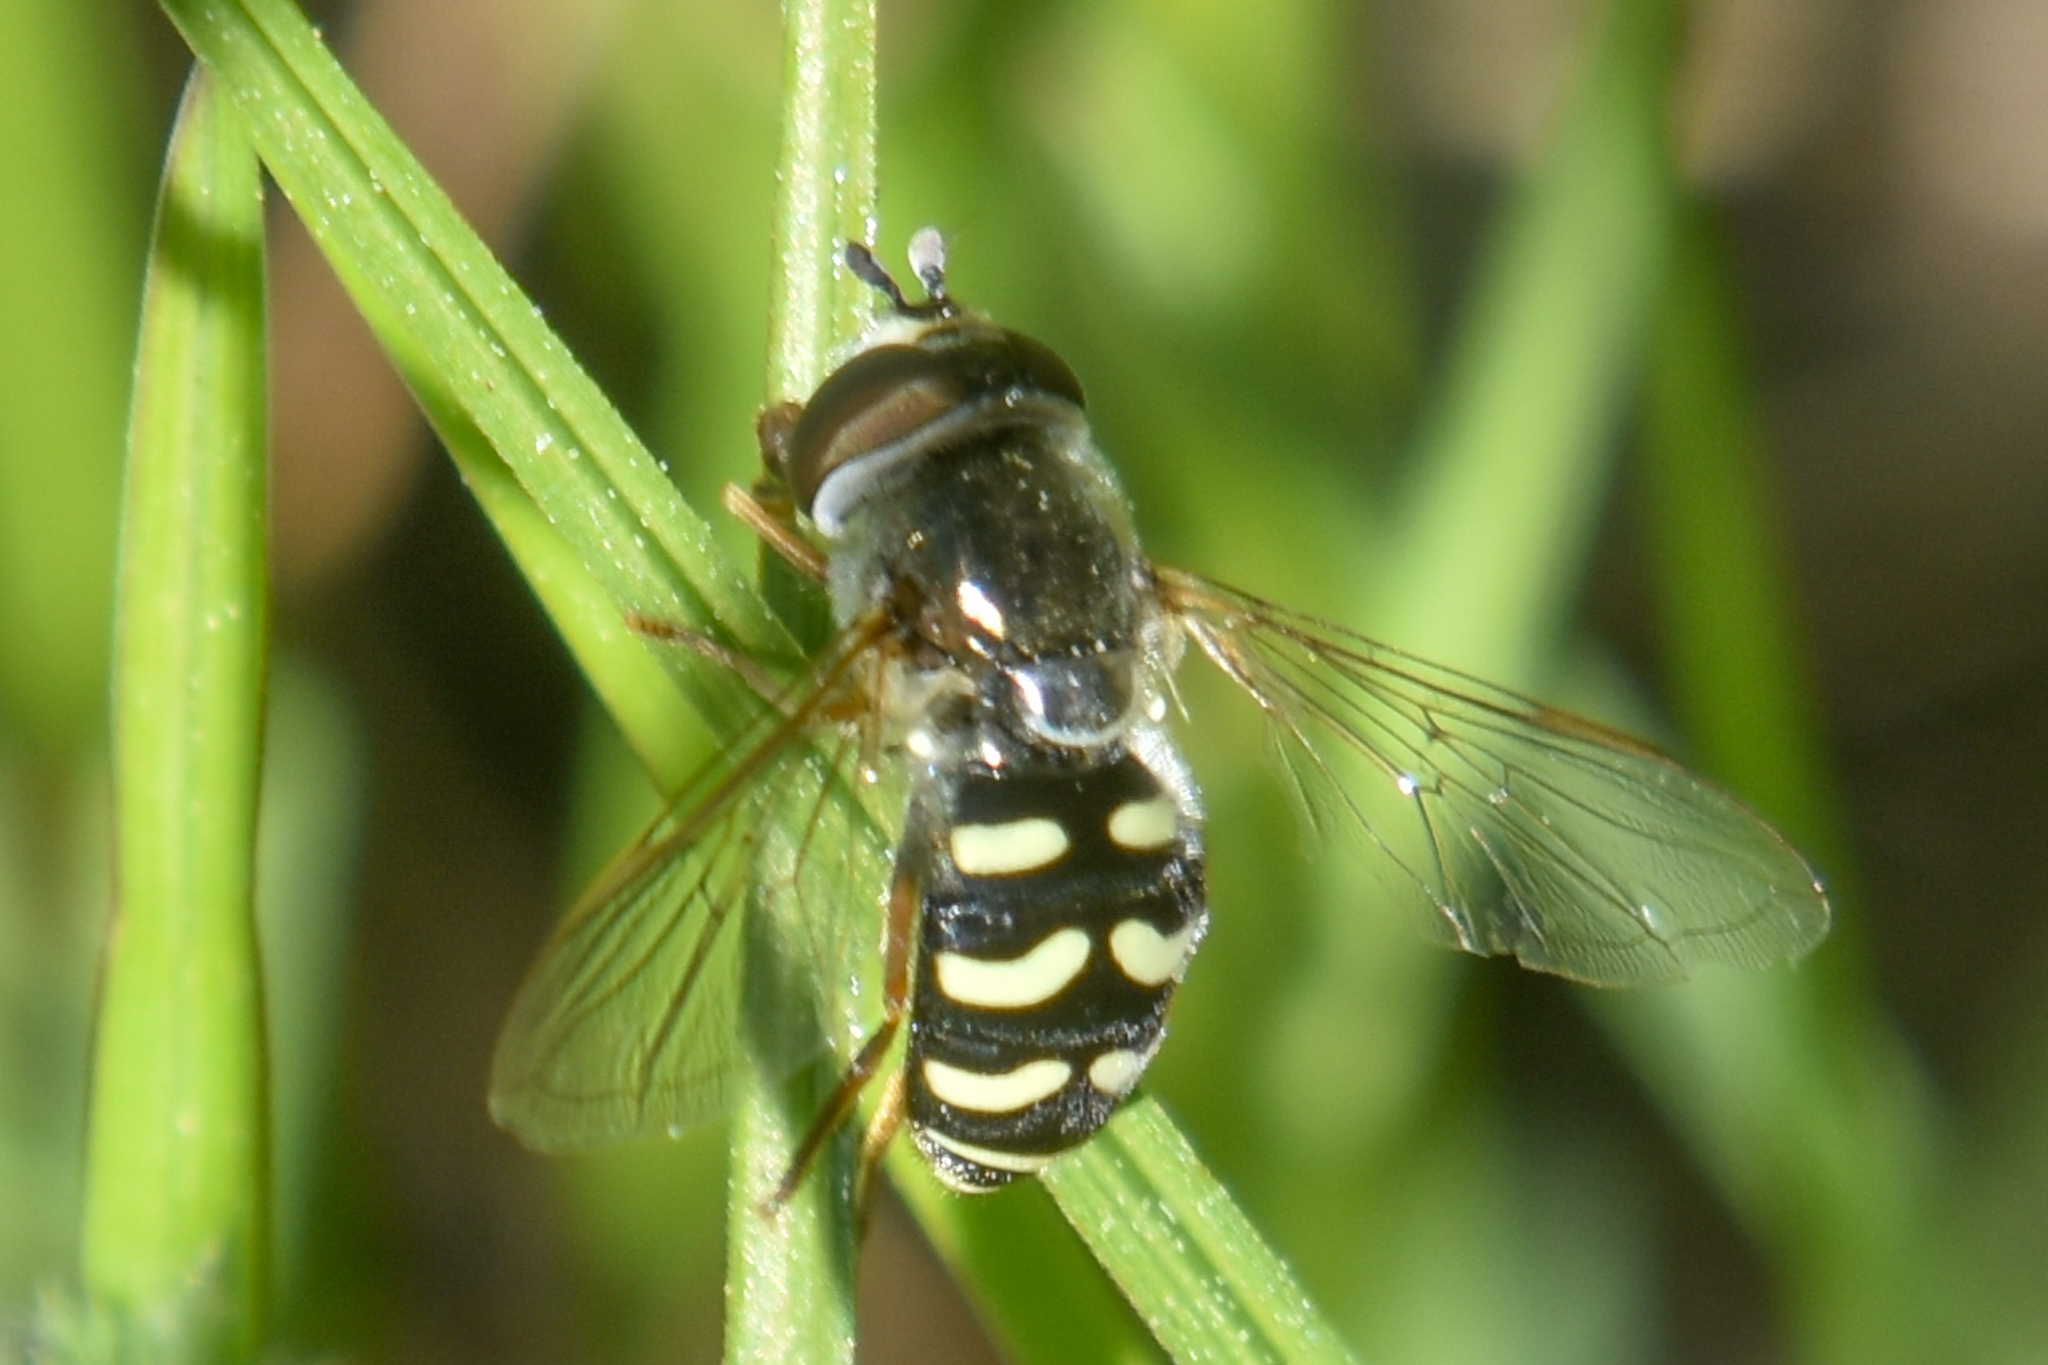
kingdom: Animalia
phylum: Arthropoda
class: Insecta
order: Diptera
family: Syrphidae
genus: Eupeodes
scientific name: Eupeodes volucris
